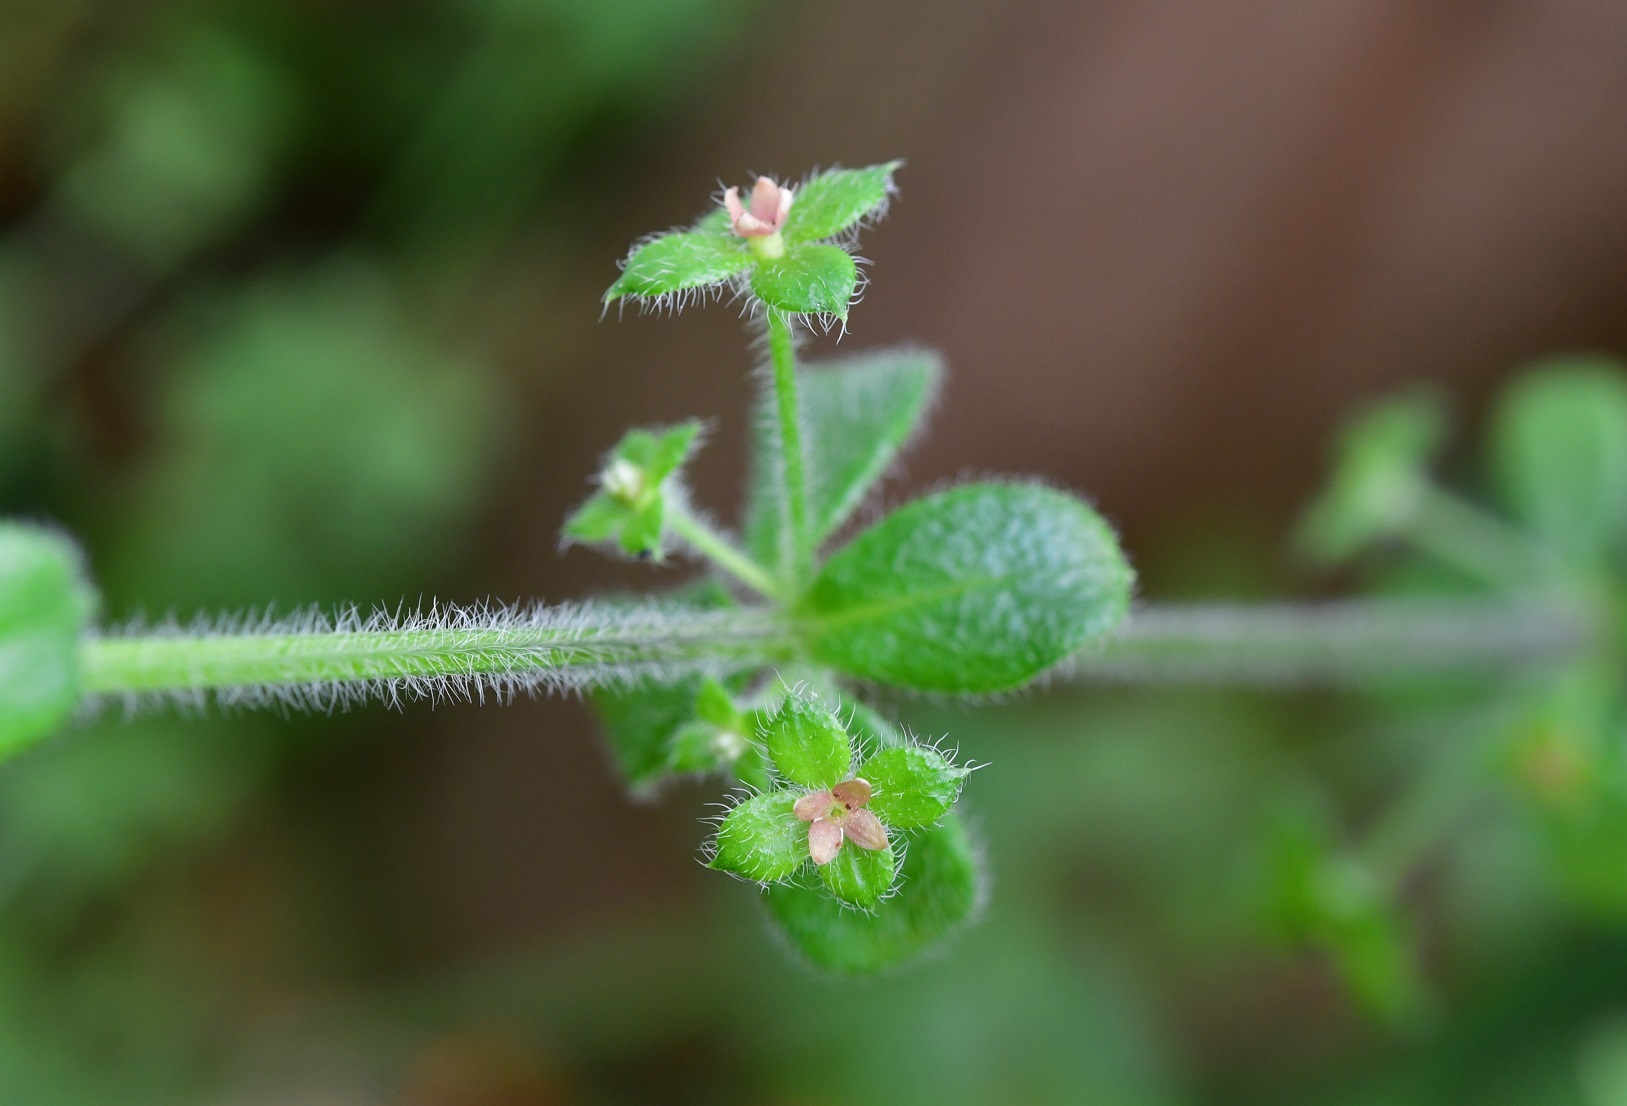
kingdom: Plantae
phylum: Tracheophyta
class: Magnoliopsida
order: Gentianales
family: Rubiaceae
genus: Galium
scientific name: Galium hypocarpium
